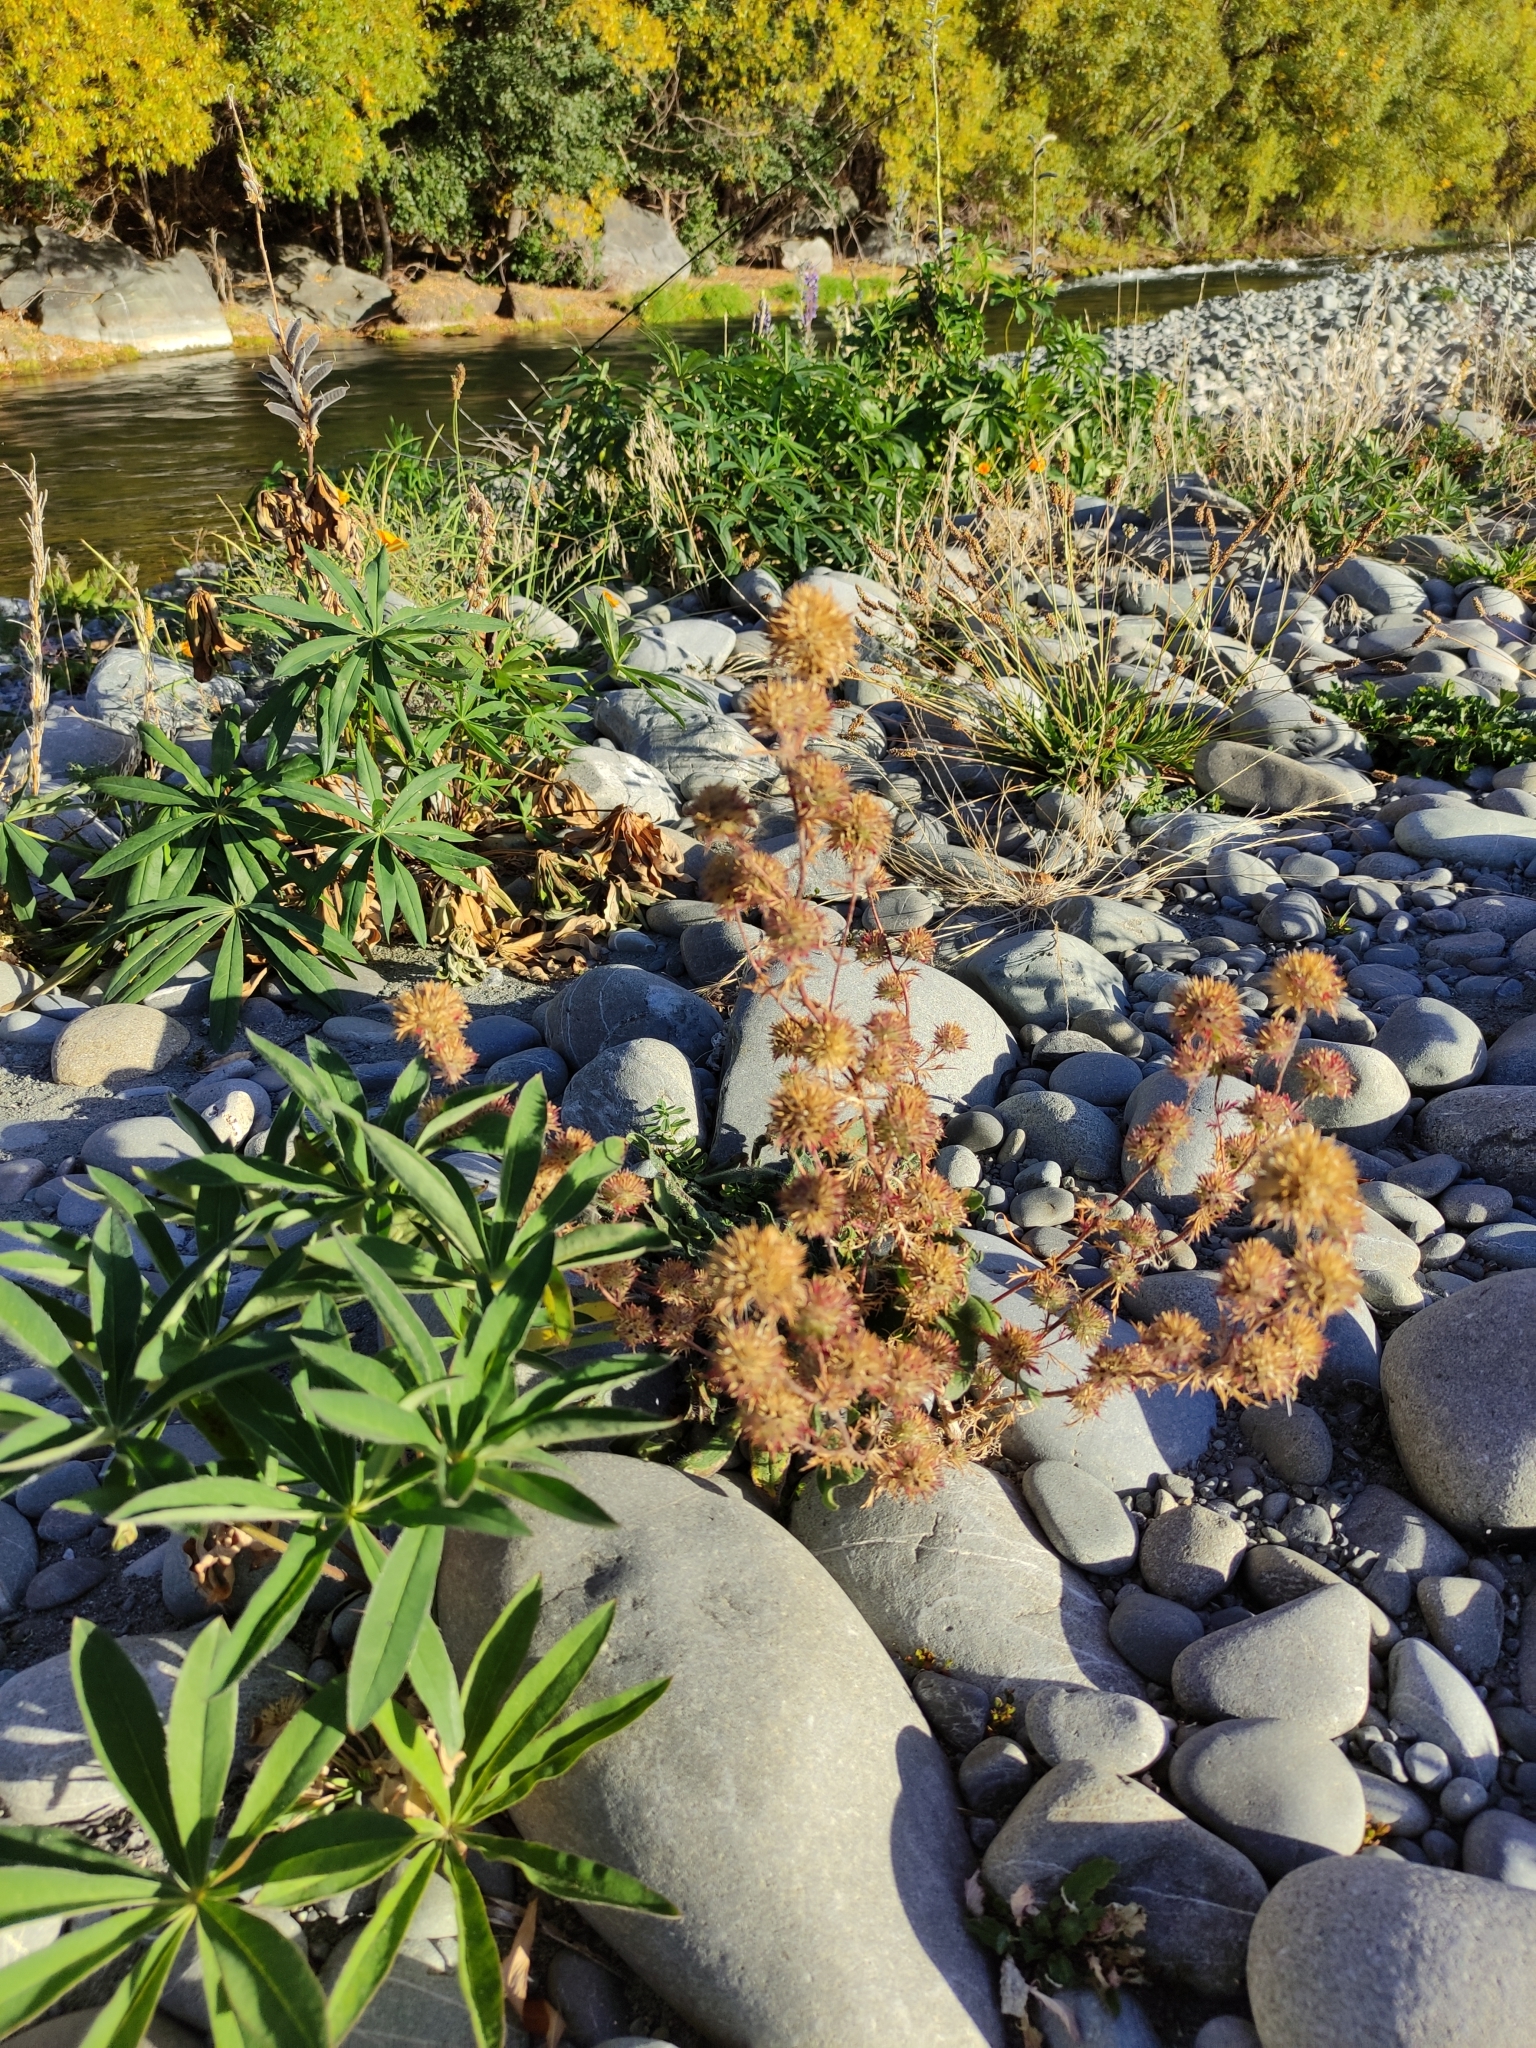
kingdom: Plantae
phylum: Tracheophyta
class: Magnoliopsida
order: Ericales
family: Polemoniaceae
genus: Navarretia
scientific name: Navarretia squarrosa
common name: Skunkweed
